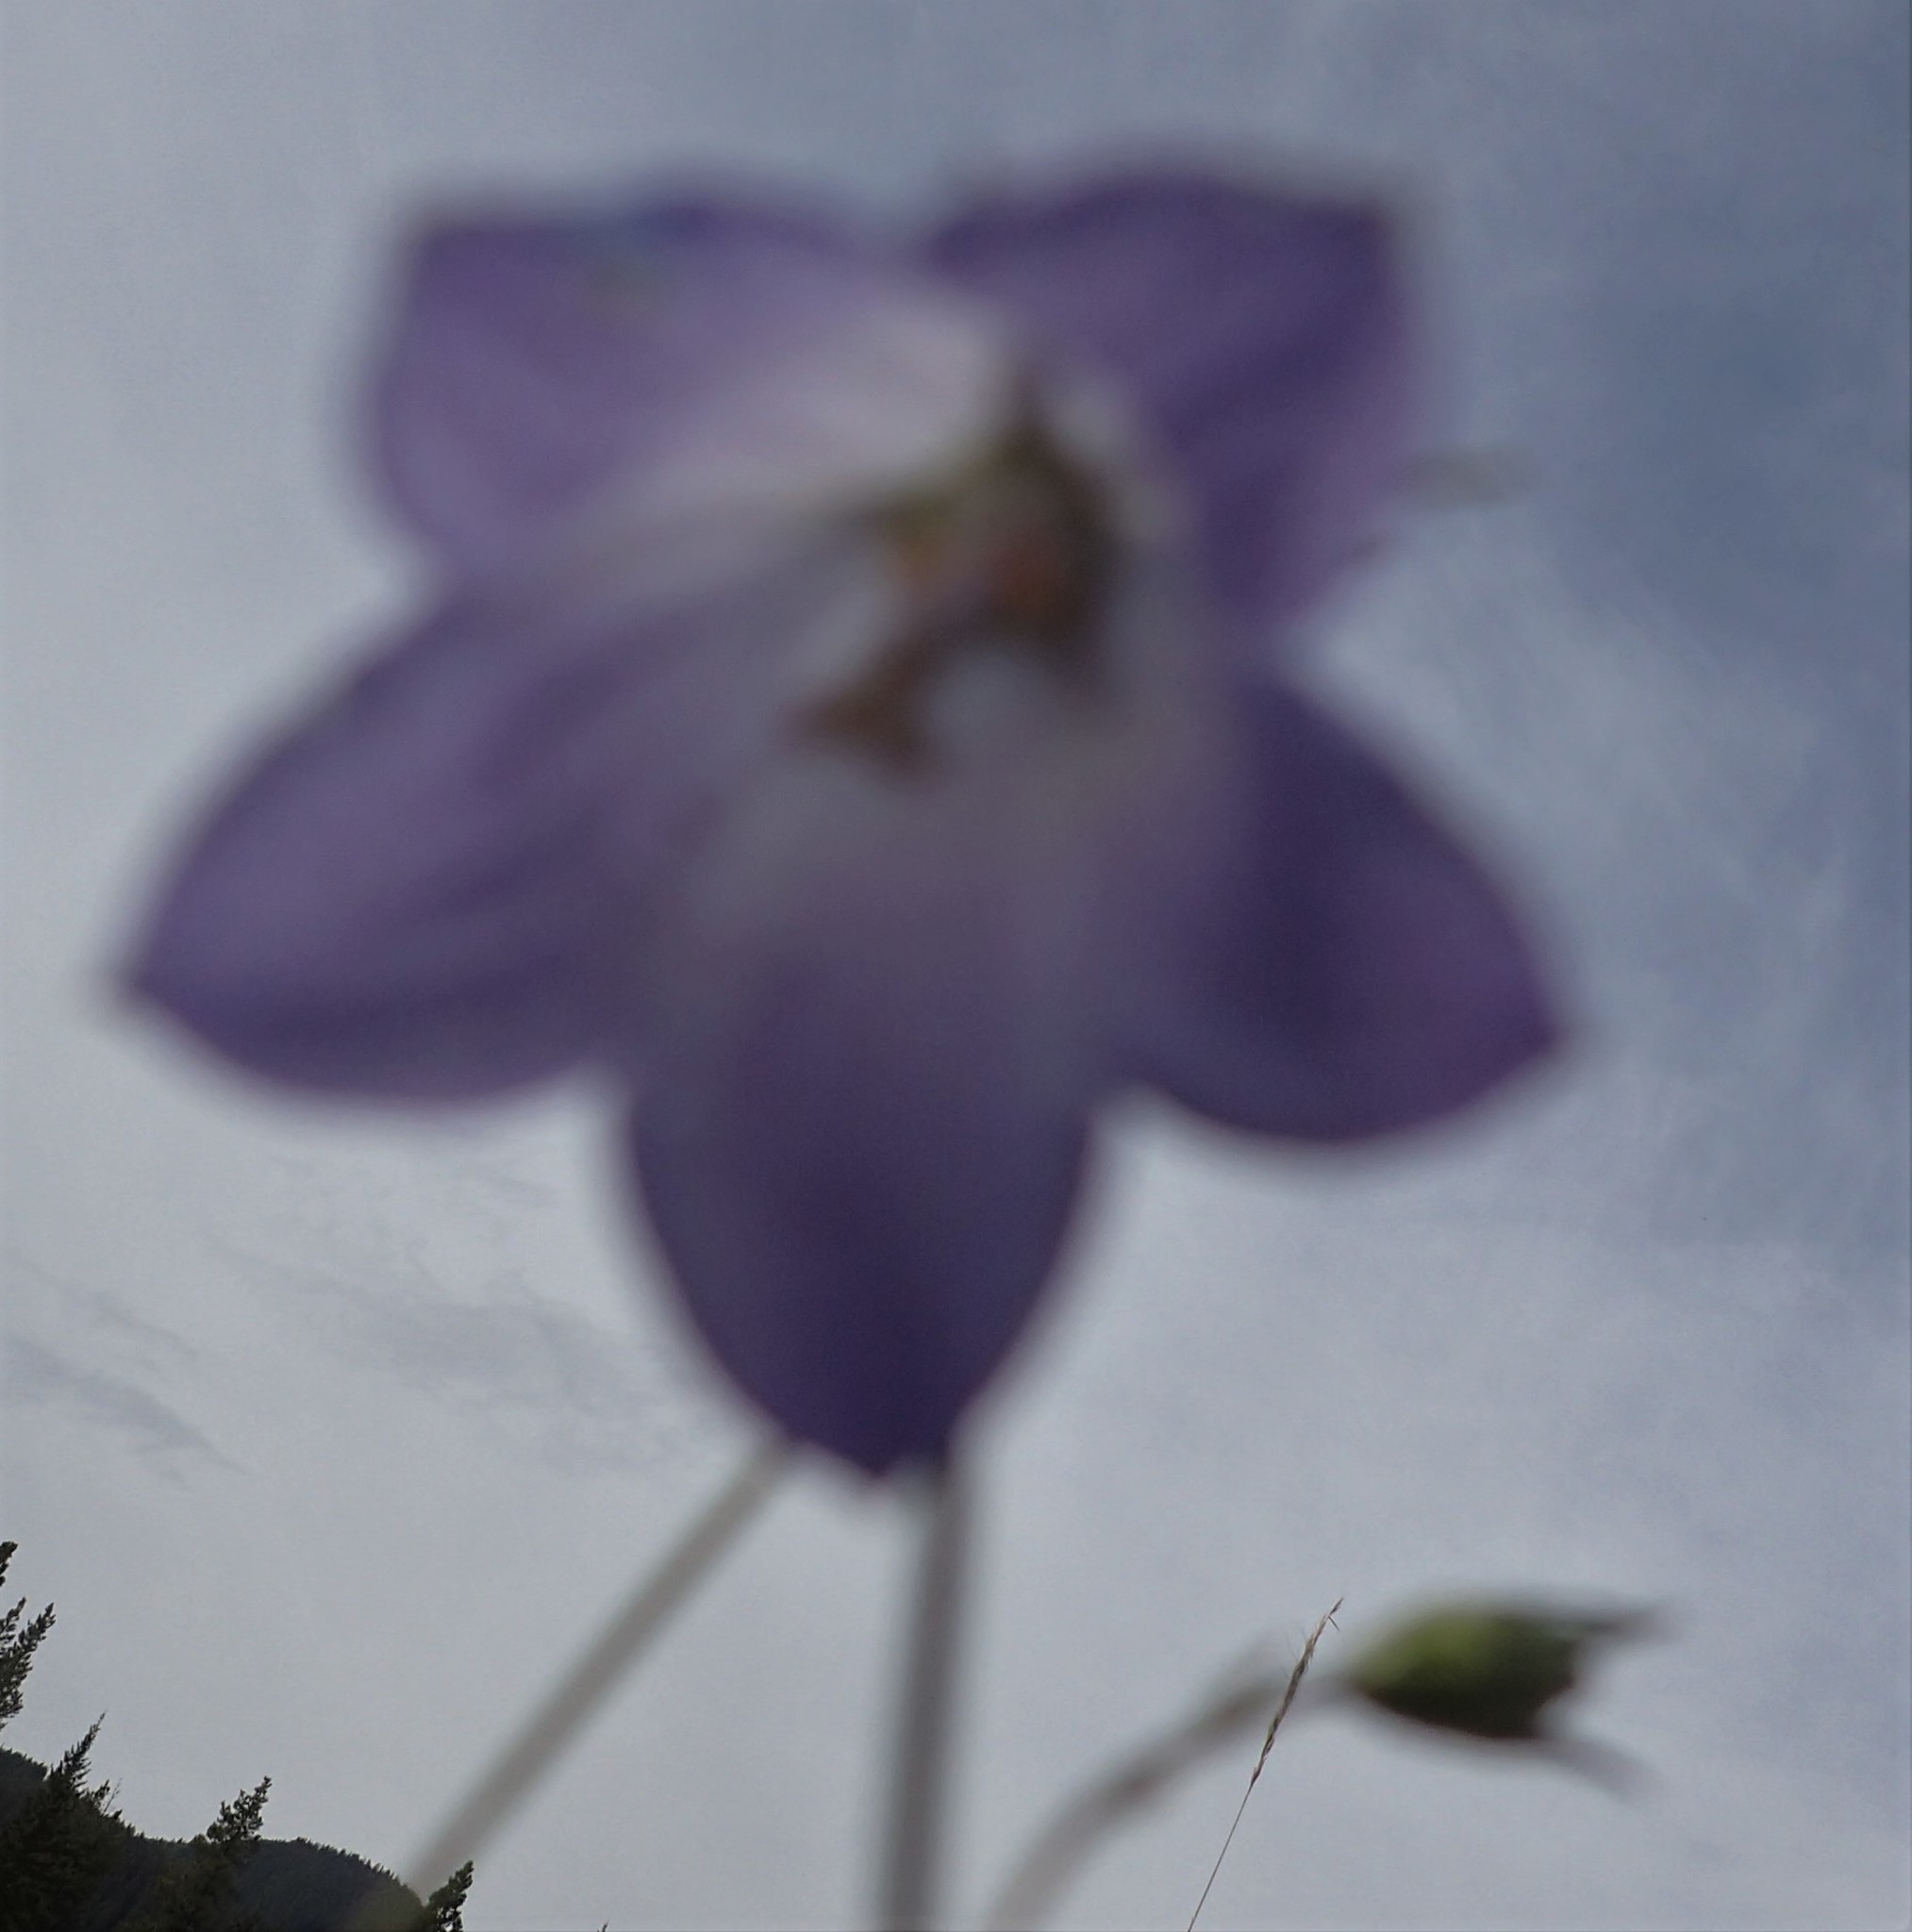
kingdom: Plantae
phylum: Tracheophyta
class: Magnoliopsida
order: Asterales
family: Campanulaceae
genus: Campanula
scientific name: Campanula alaskana
